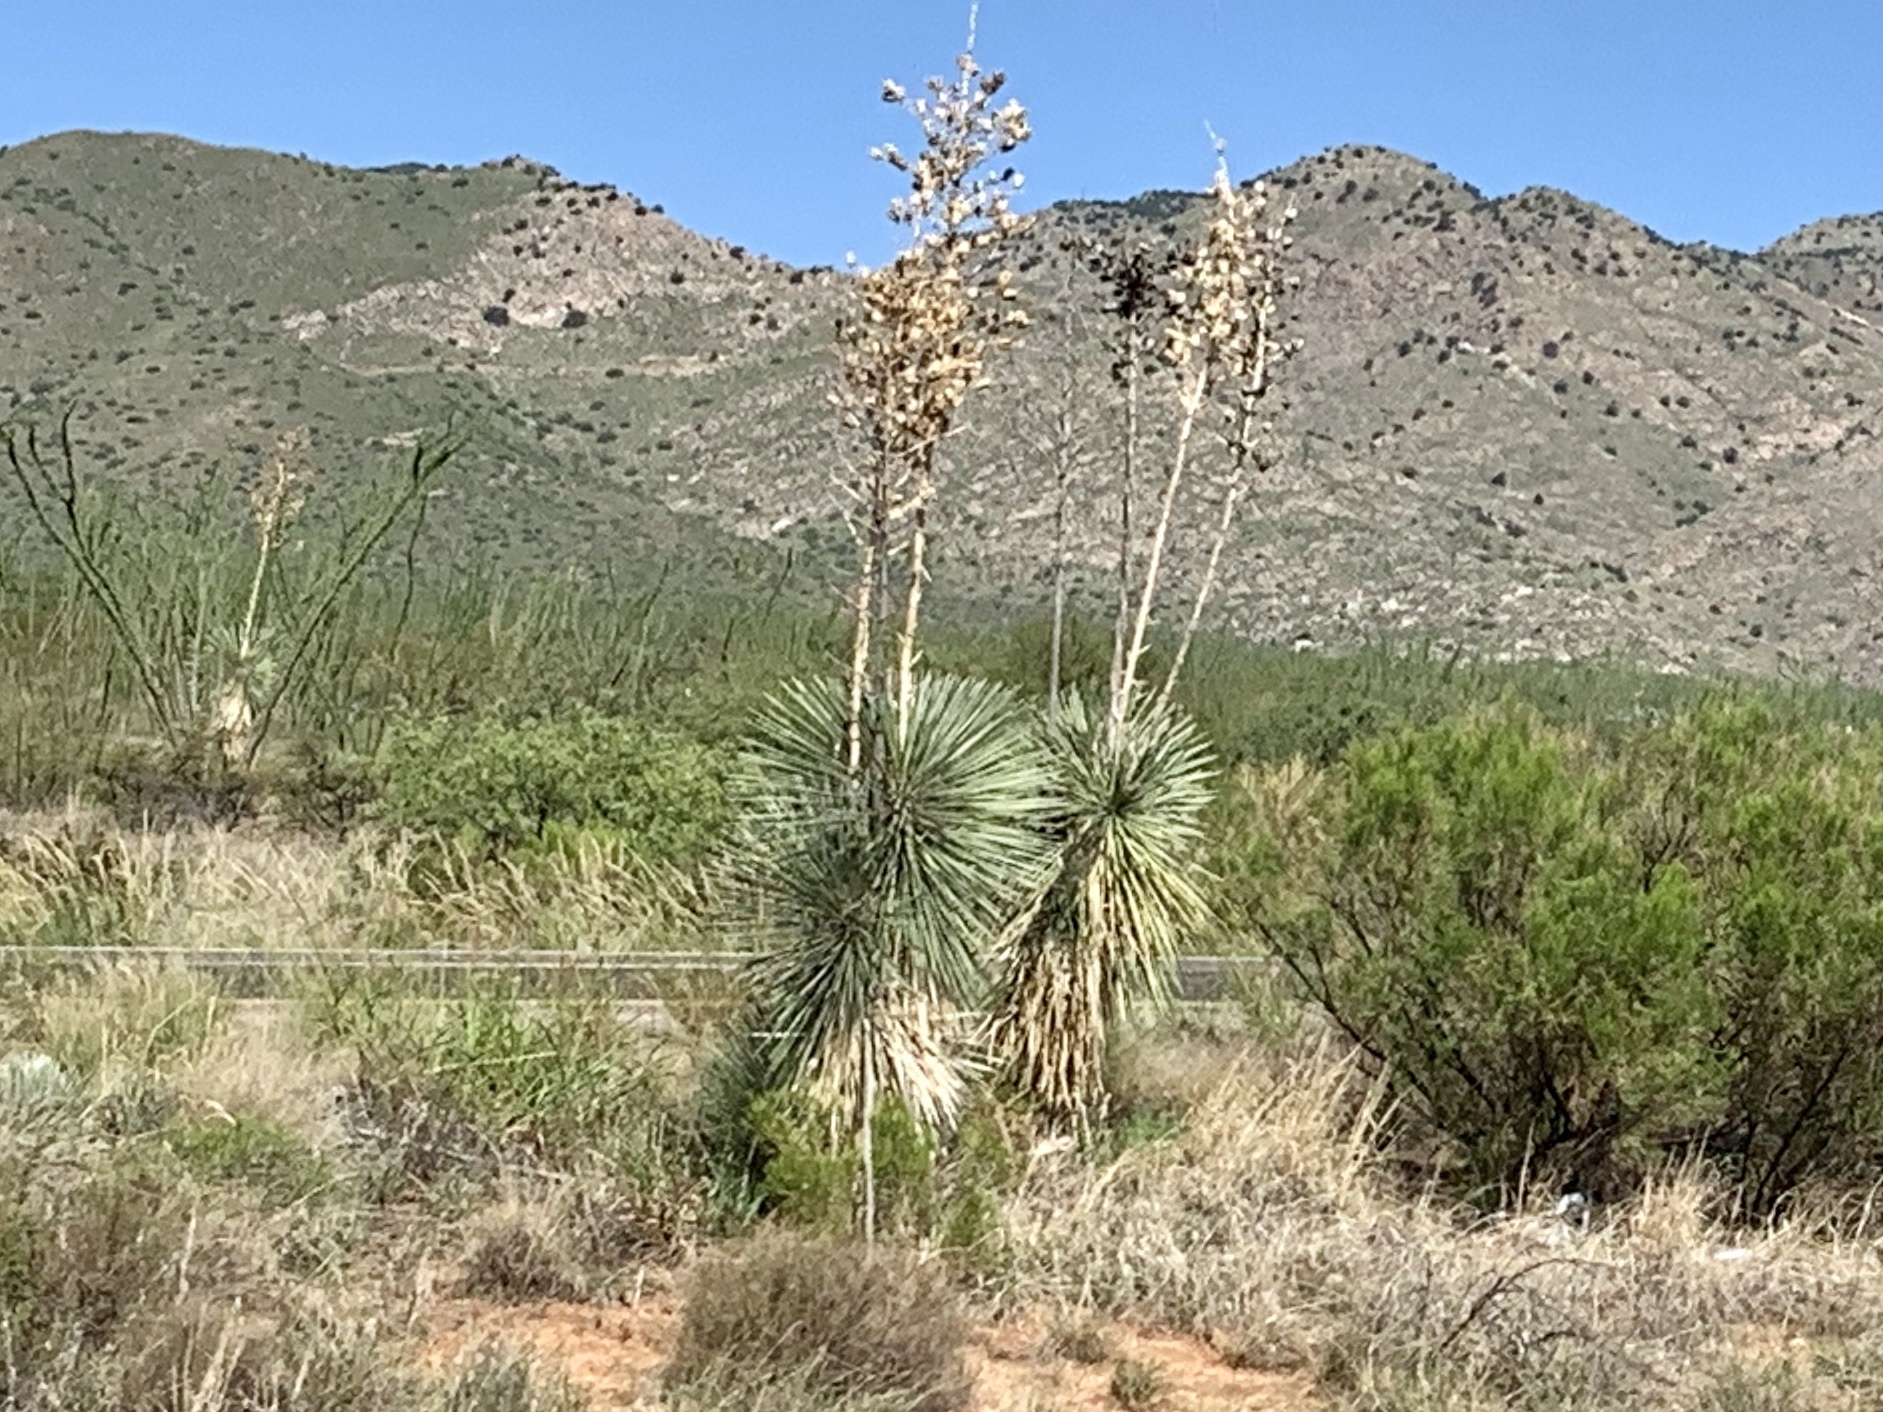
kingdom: Plantae
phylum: Tracheophyta
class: Liliopsida
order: Asparagales
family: Asparagaceae
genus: Yucca
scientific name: Yucca elata
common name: Palmella
